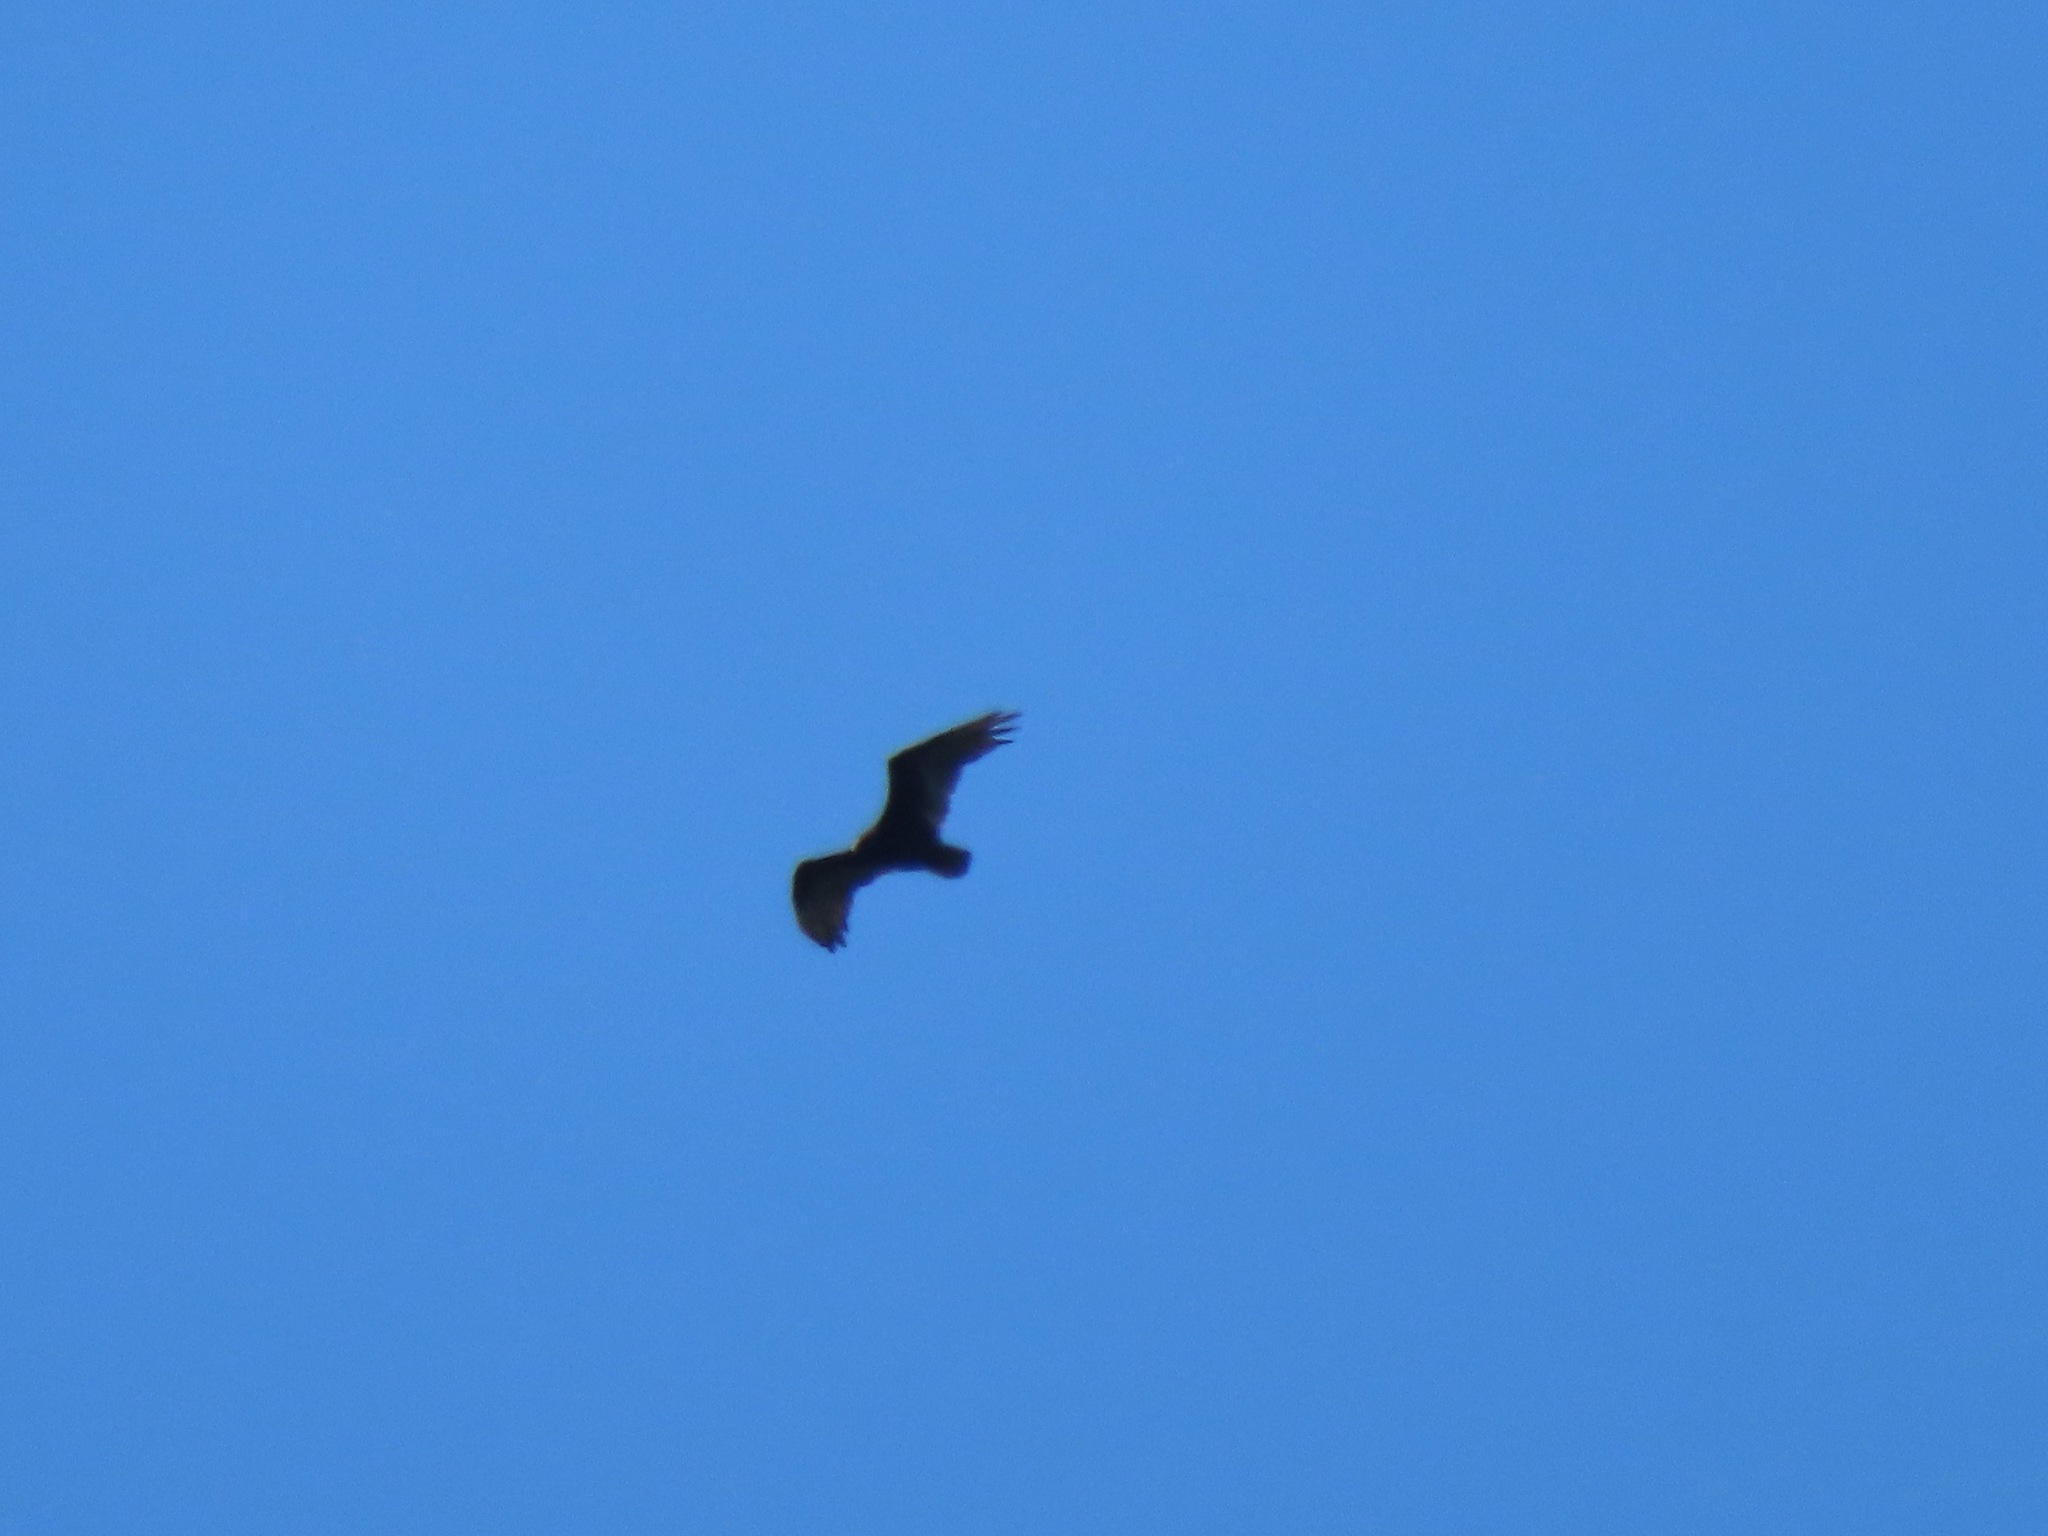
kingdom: Animalia
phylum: Chordata
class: Aves
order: Accipitriformes
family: Cathartidae
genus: Cathartes
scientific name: Cathartes aura
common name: Turkey vulture
